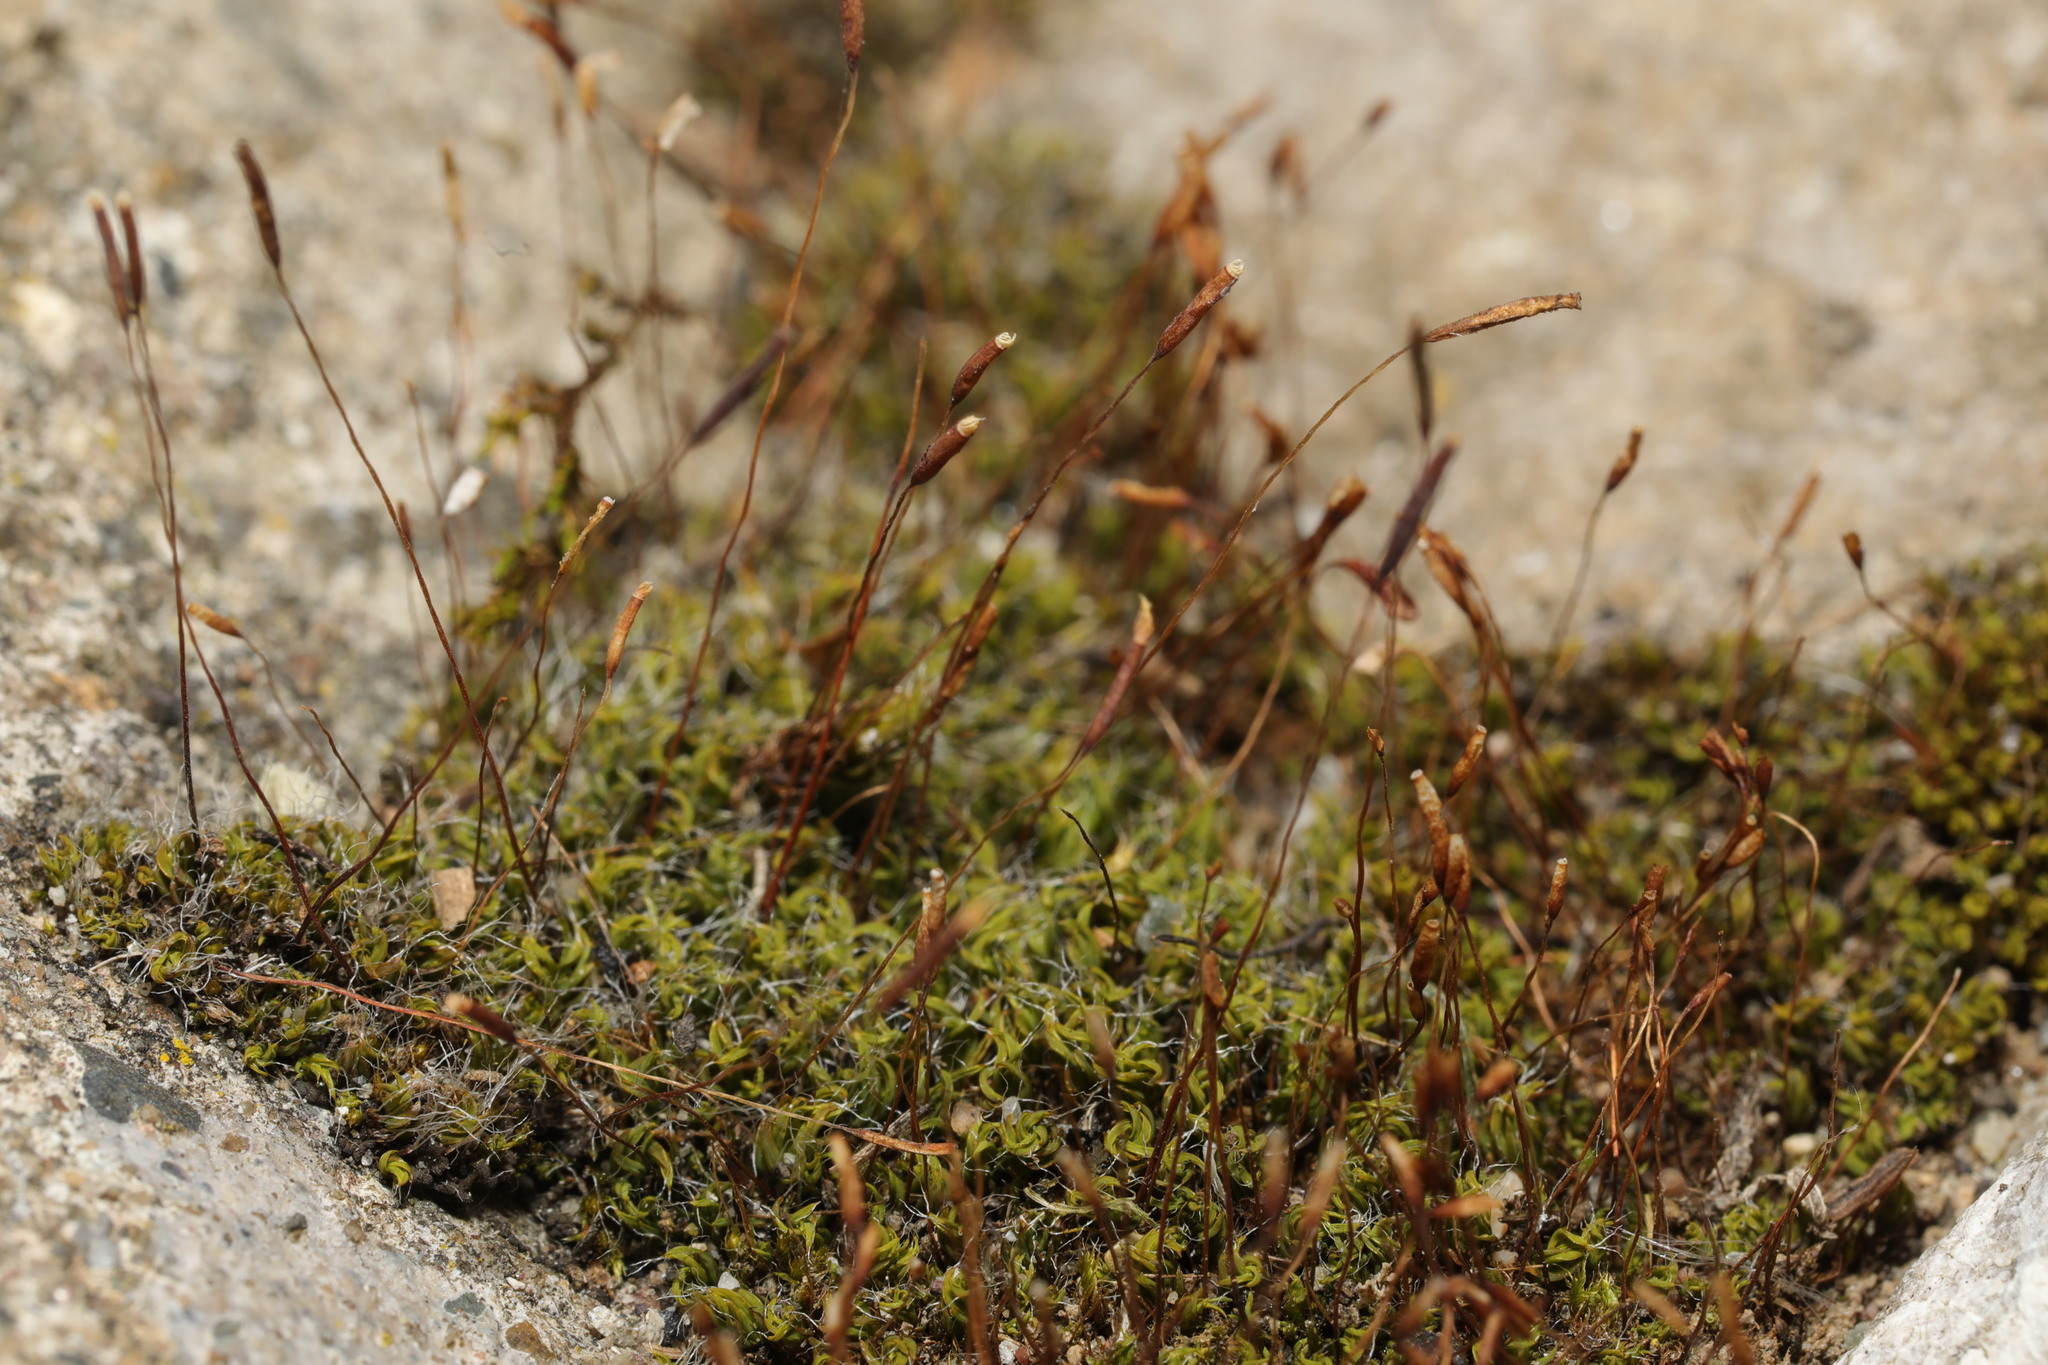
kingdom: Plantae
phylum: Bryophyta
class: Bryopsida
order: Pottiales
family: Pottiaceae
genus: Tortula
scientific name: Tortula muralis
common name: Wall screw-moss
